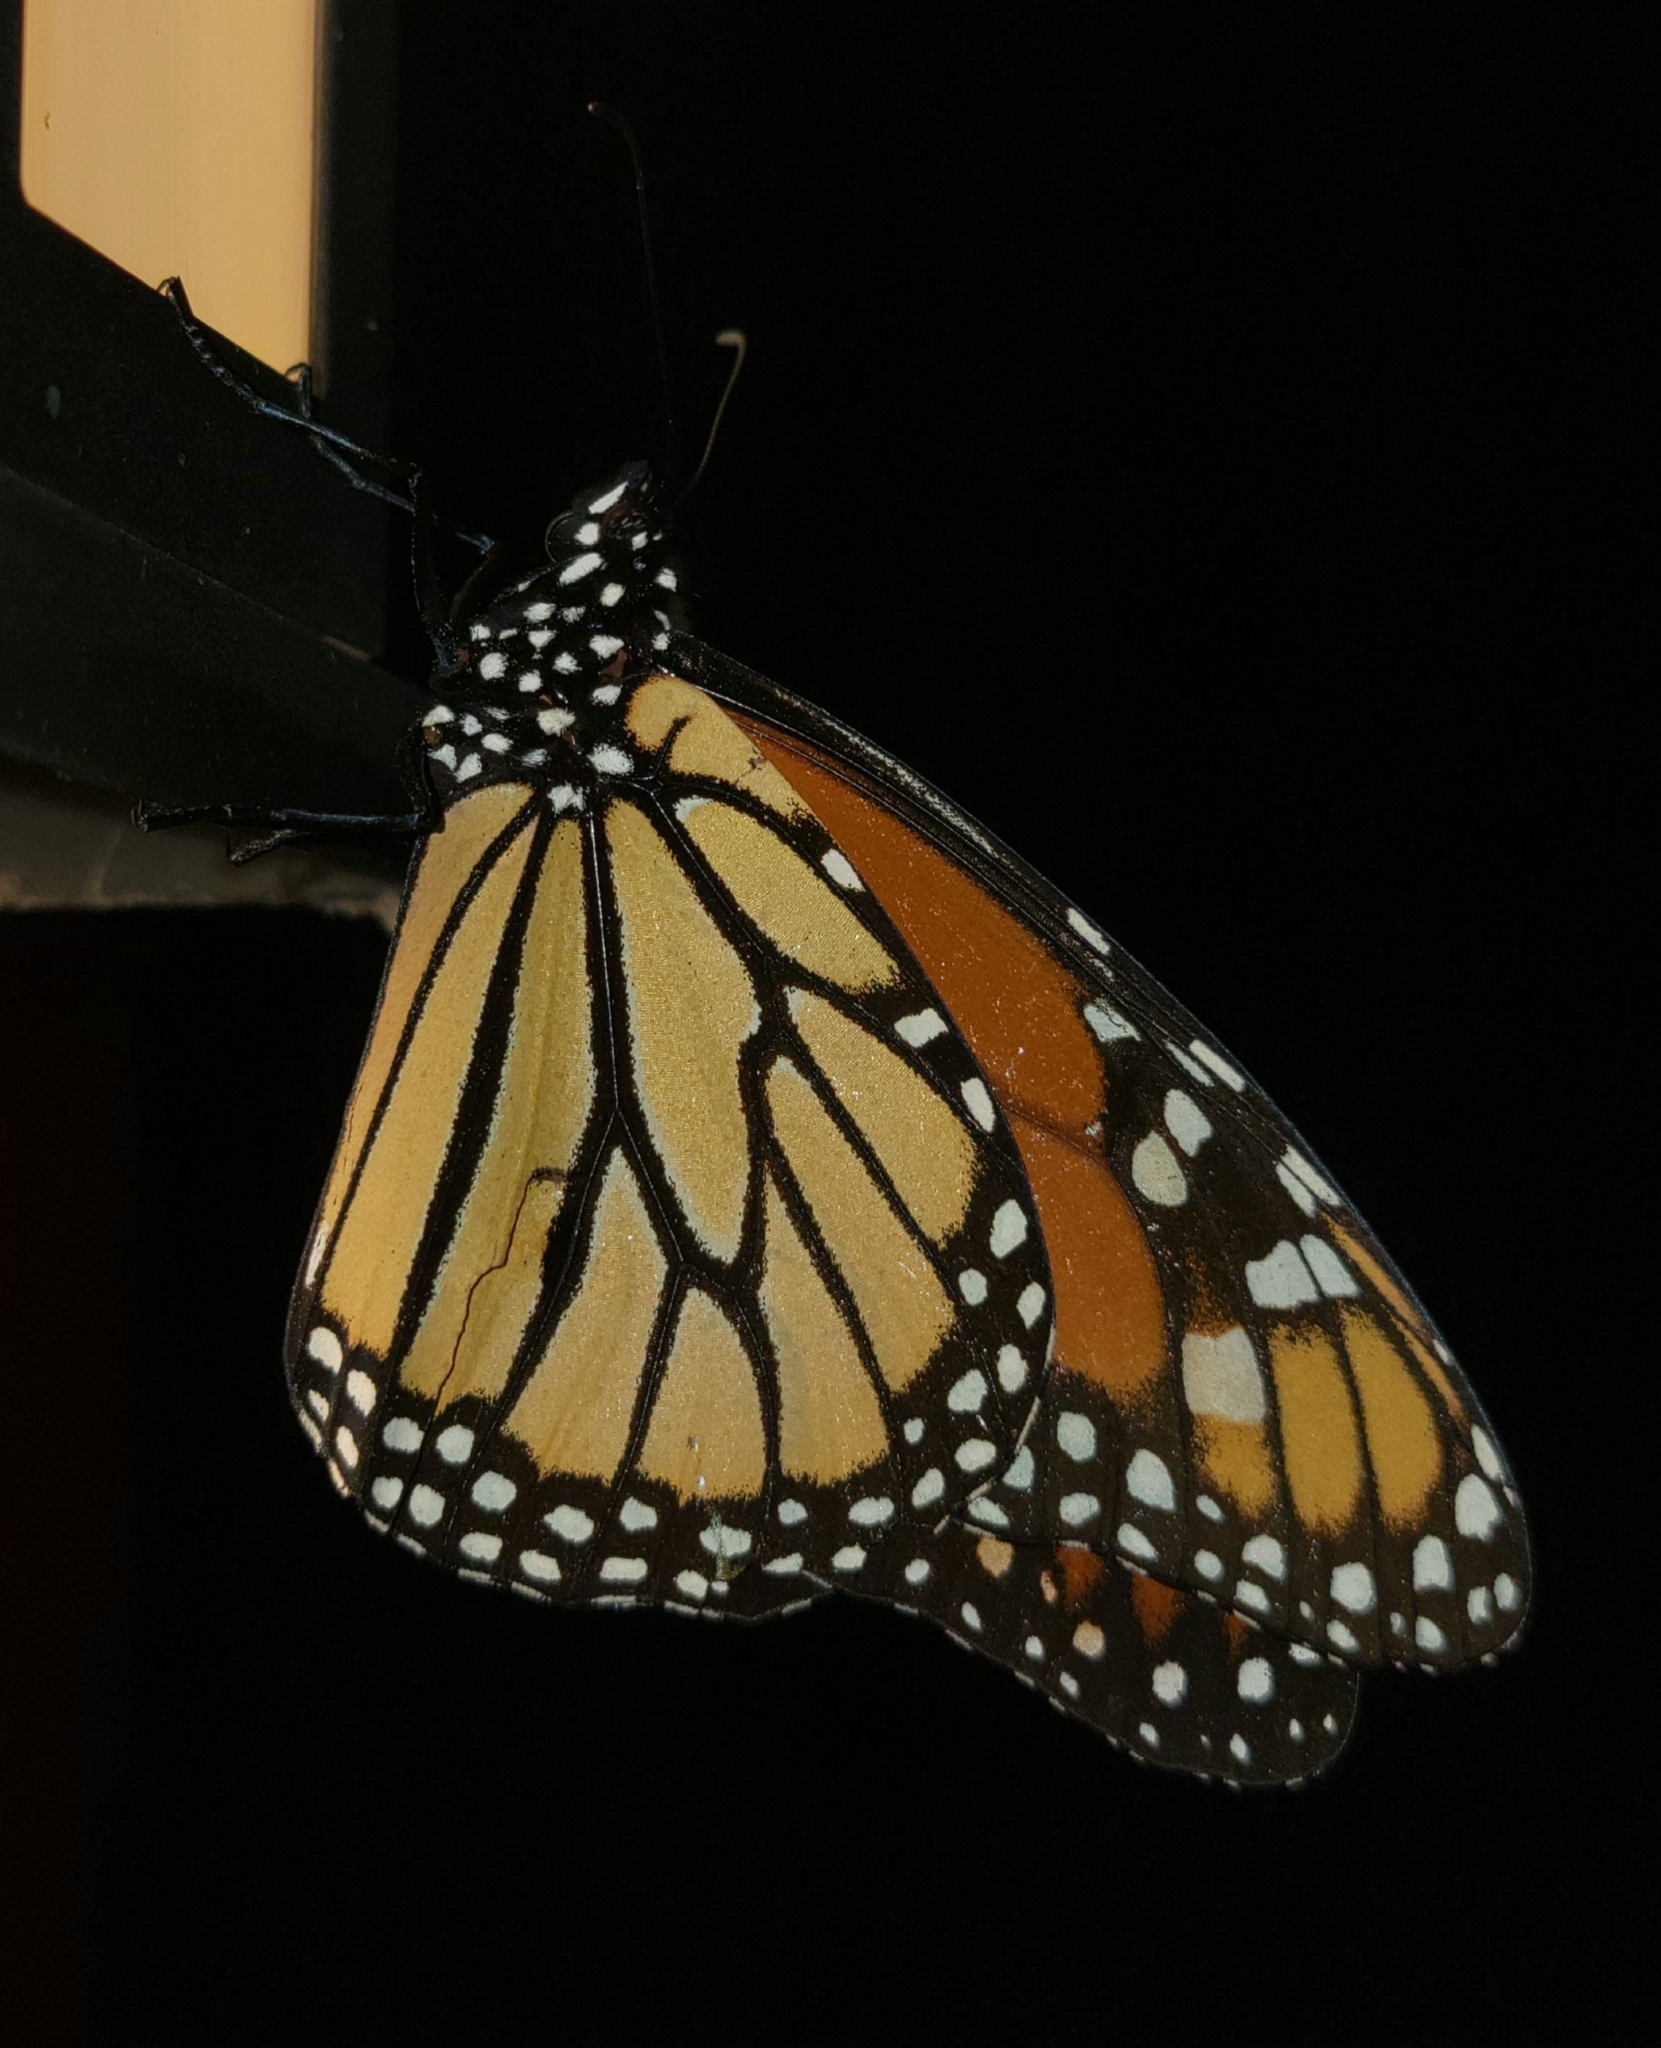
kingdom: Animalia
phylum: Arthropoda
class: Insecta
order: Lepidoptera
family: Nymphalidae
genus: Danaus
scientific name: Danaus plexippus
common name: Monarch
